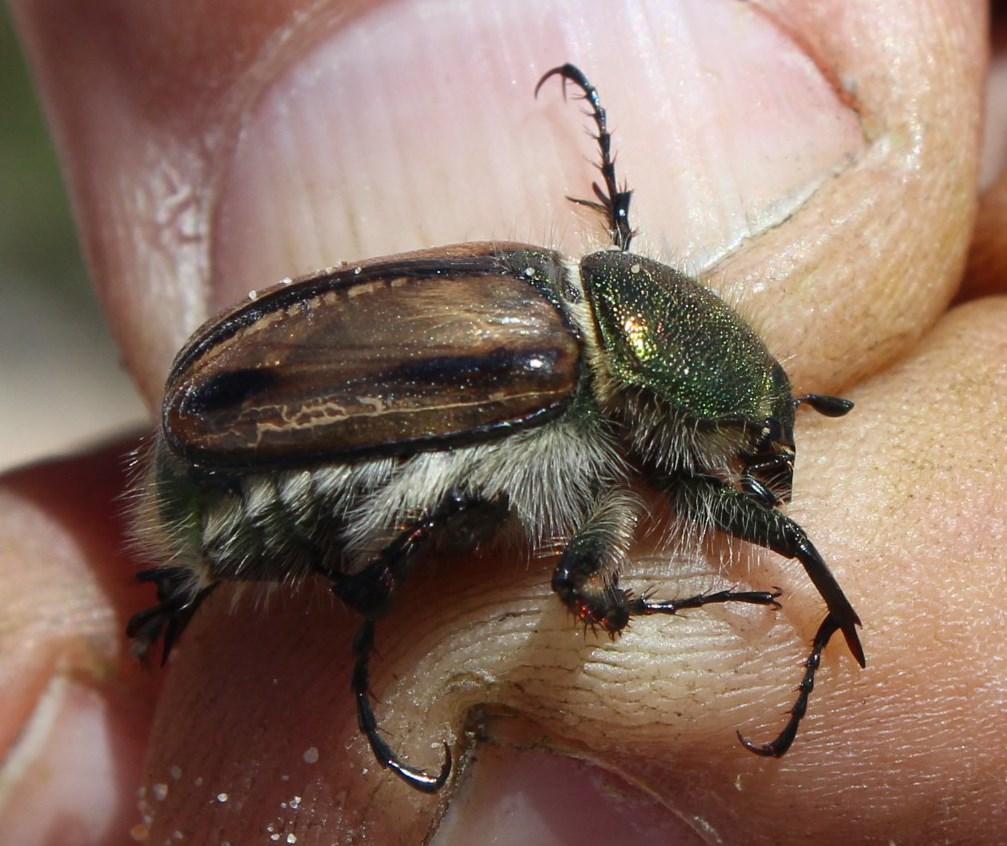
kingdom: Animalia
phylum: Arthropoda
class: Insecta
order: Coleoptera
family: Scarabaeidae
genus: Stegopterus
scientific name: Stegopterus vittatus
